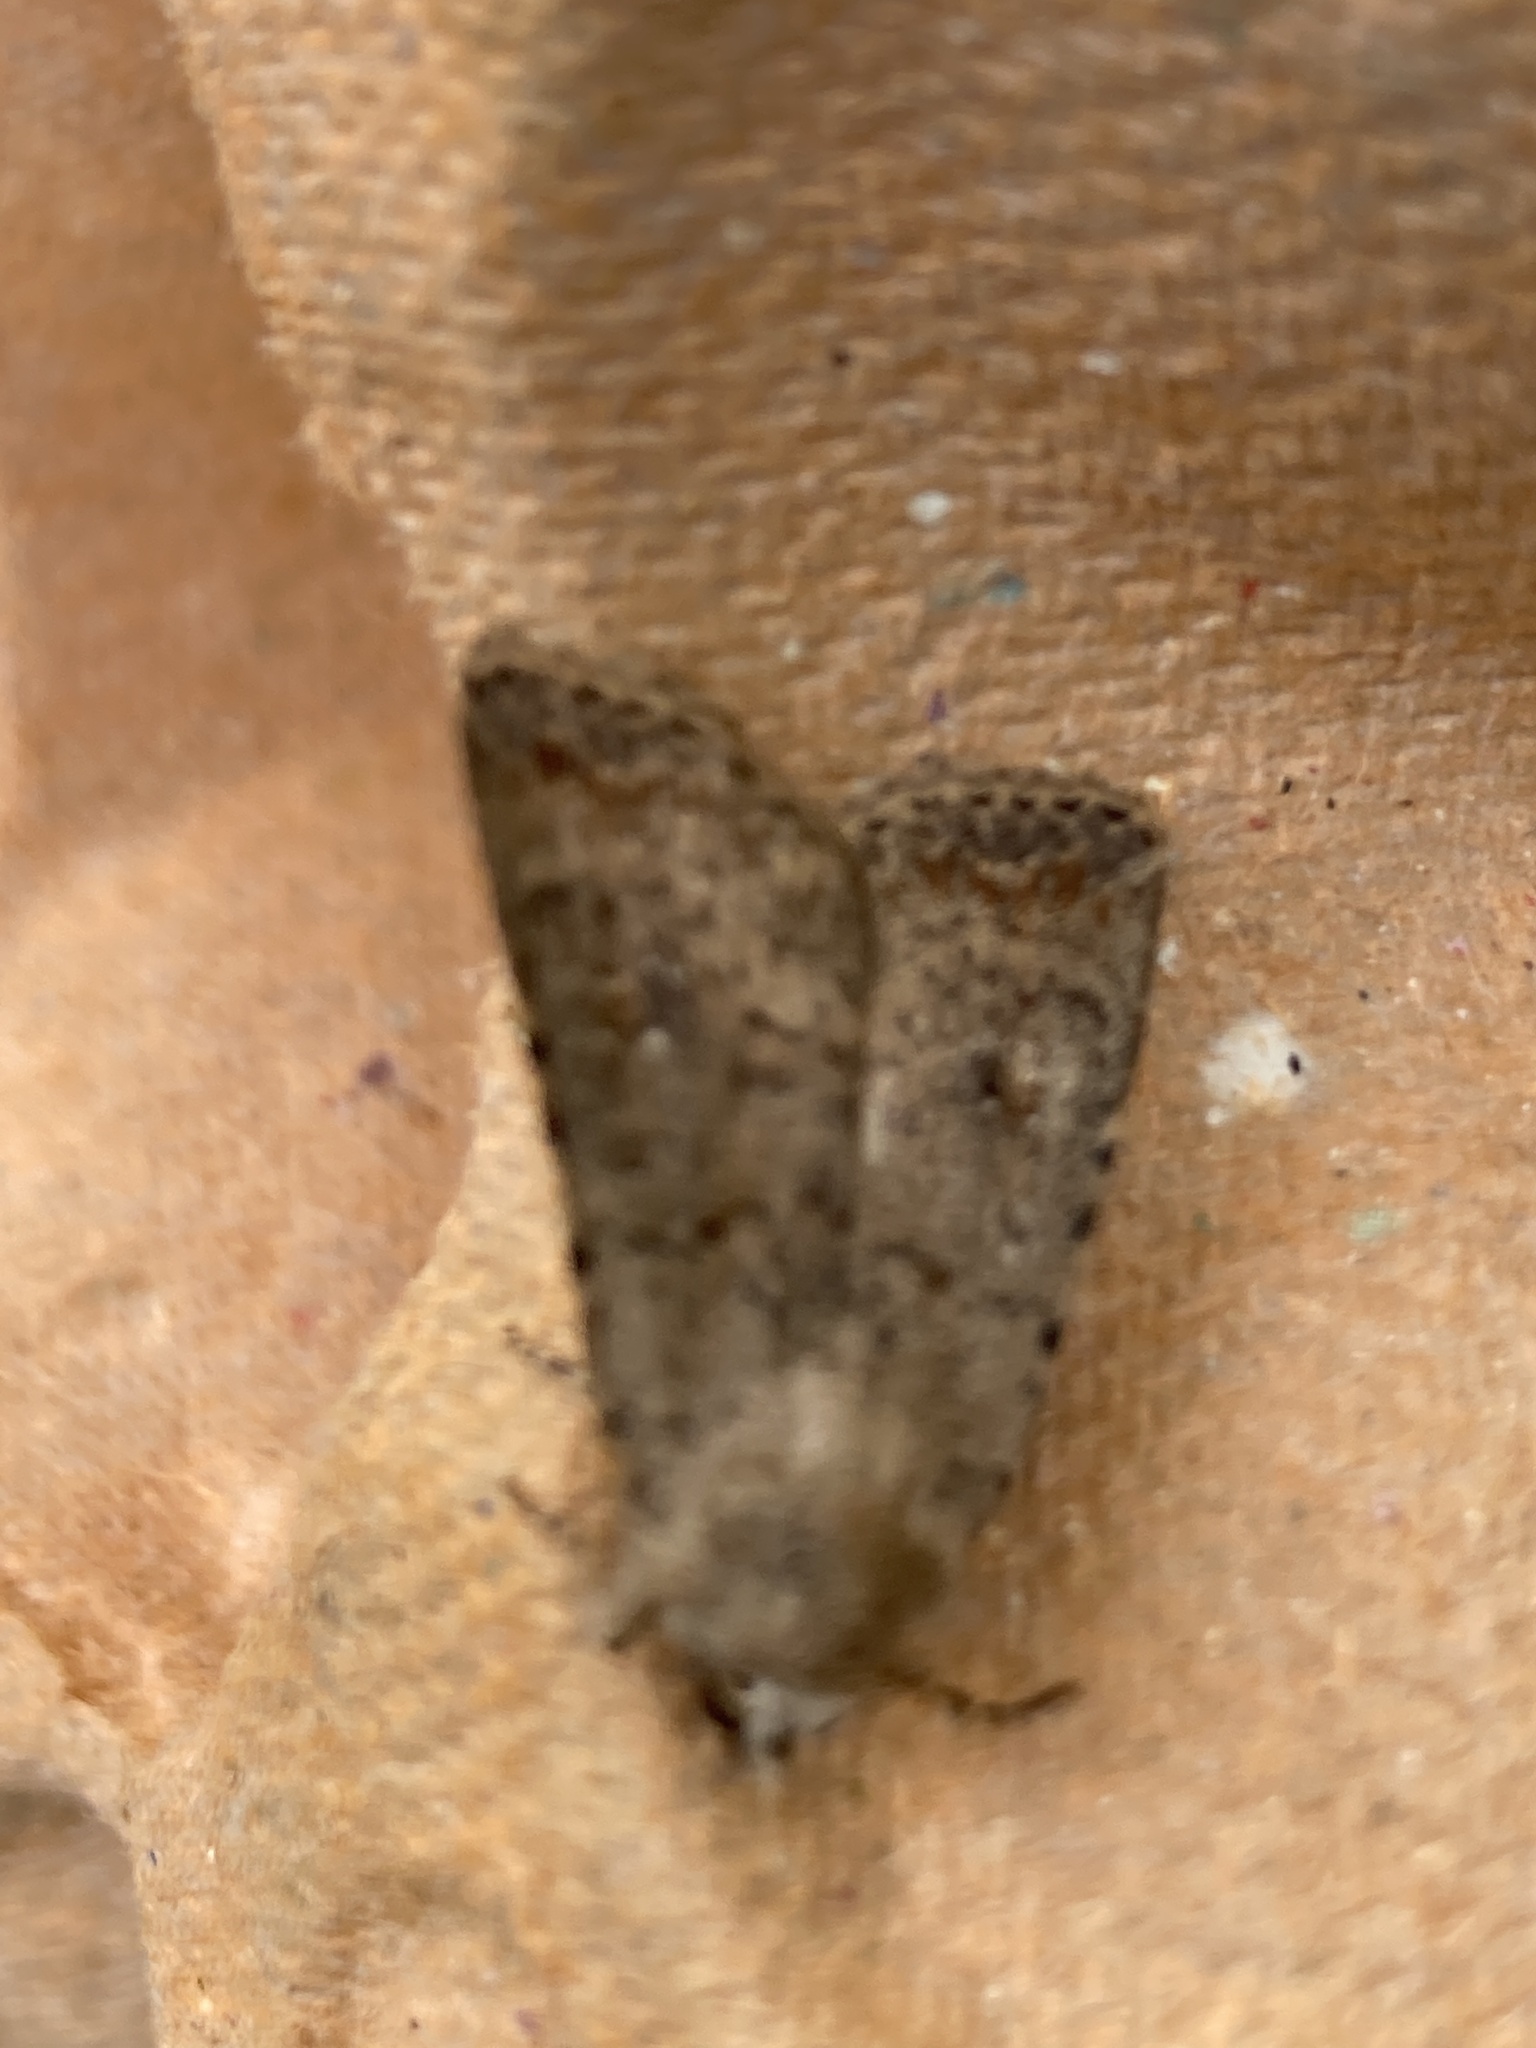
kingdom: Animalia
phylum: Arthropoda
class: Insecta
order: Lepidoptera
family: Noctuidae
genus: Caradrina
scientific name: Caradrina clavipalpis
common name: Pale mottled willow
